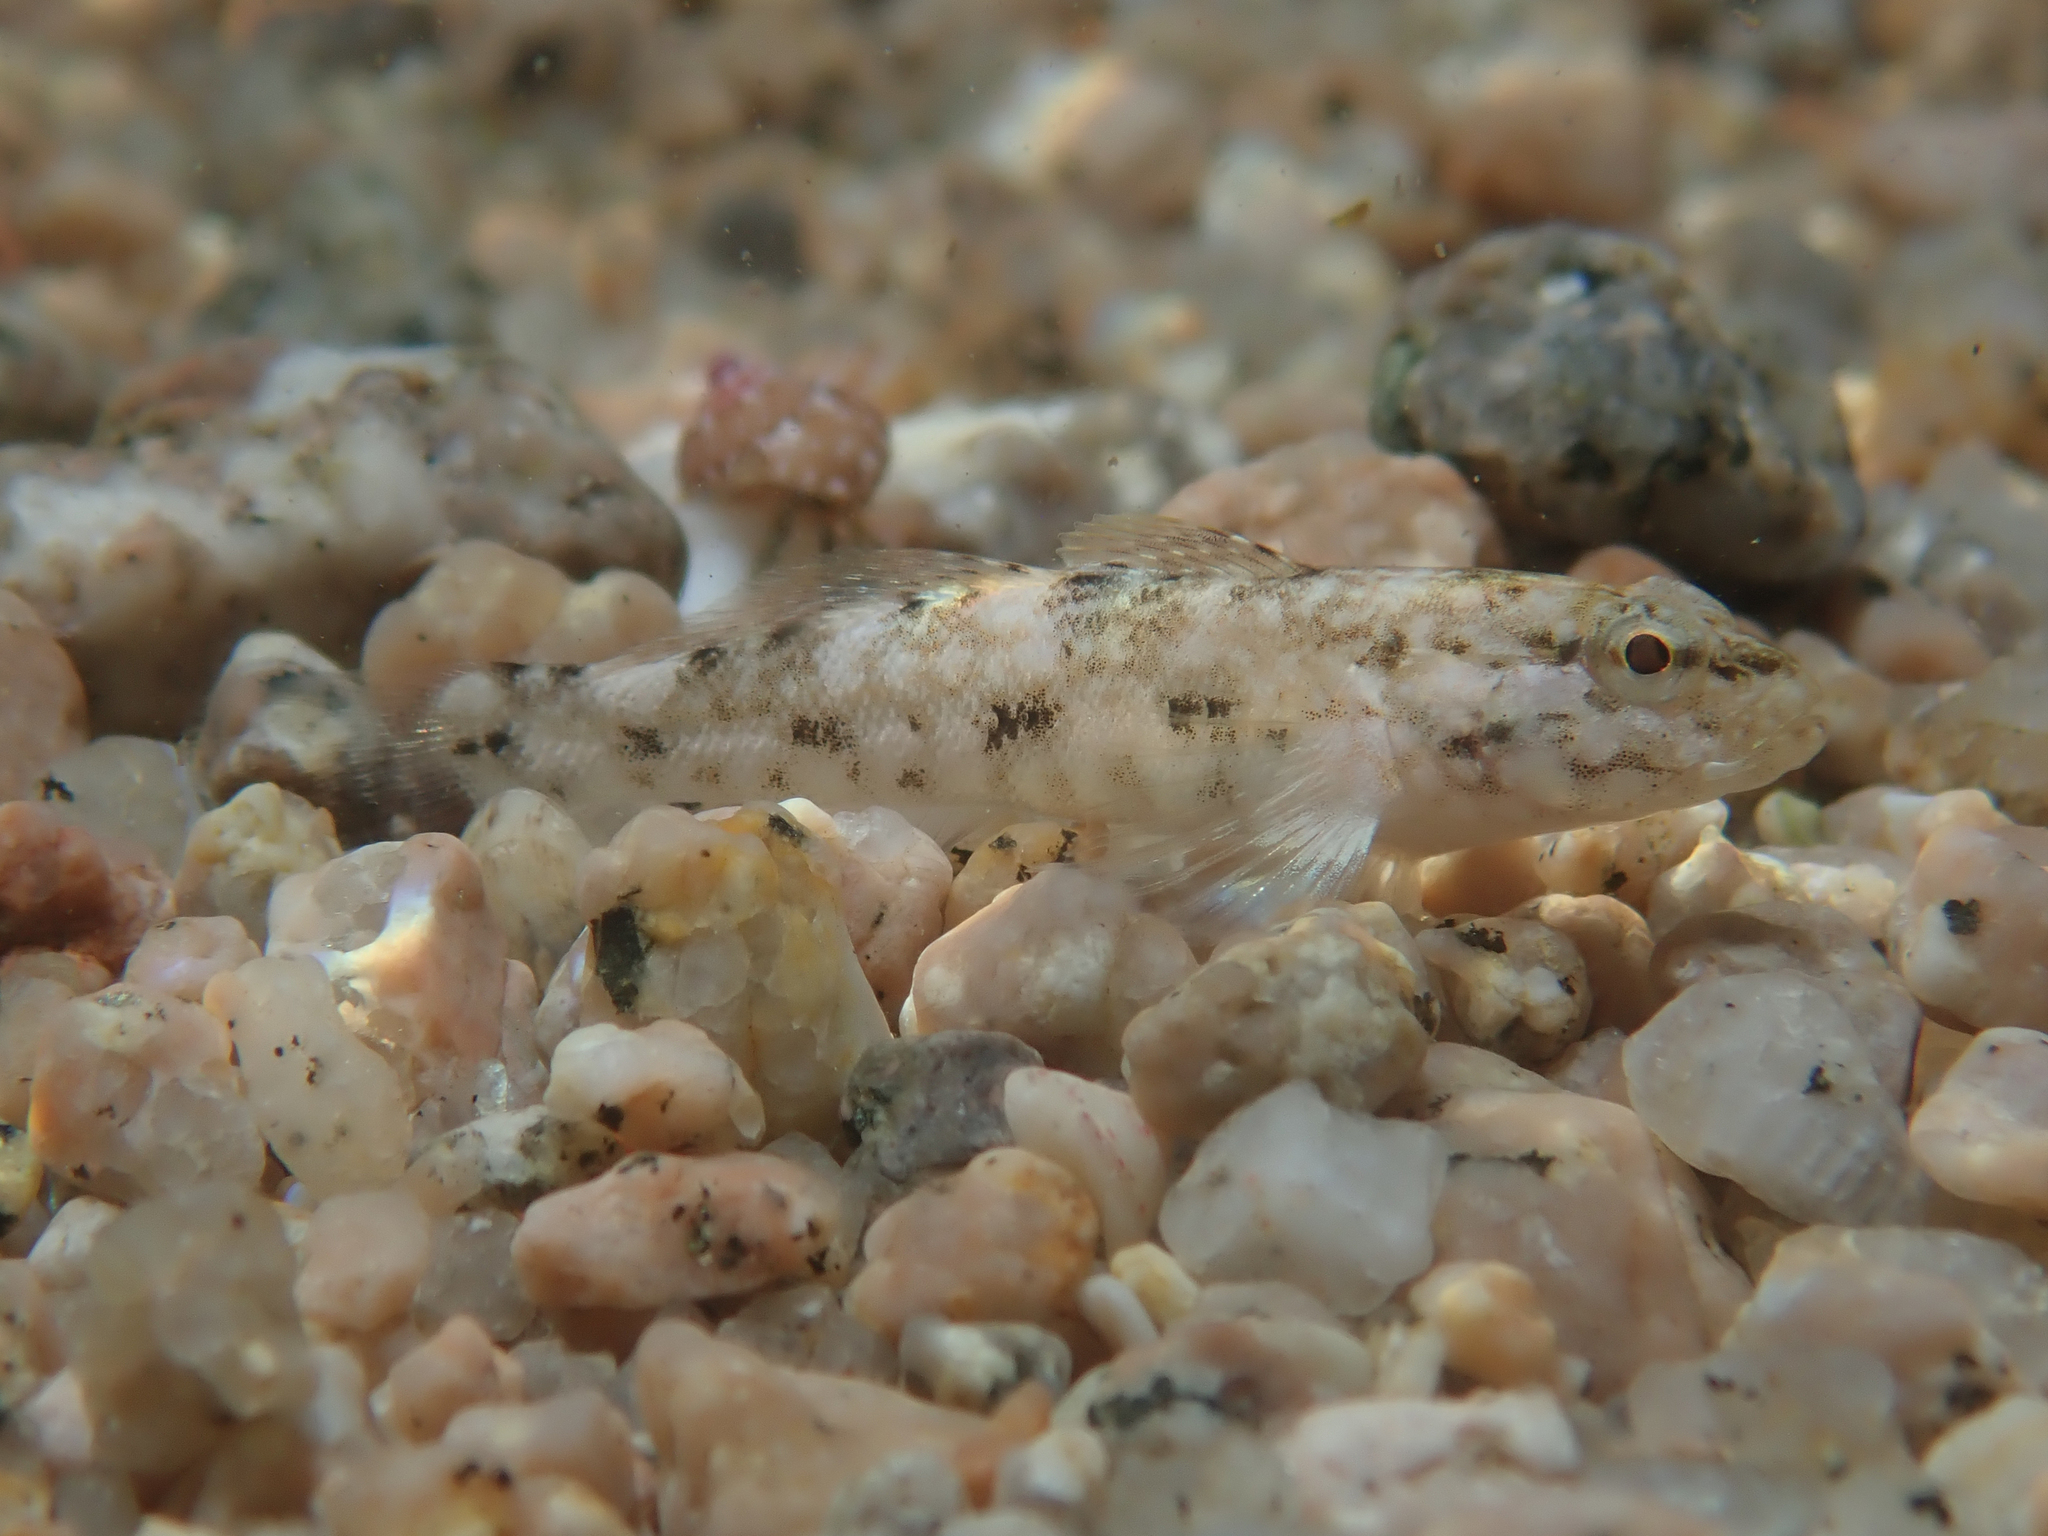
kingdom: Animalia
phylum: Chordata
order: Perciformes
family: Gobiidae
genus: Gobius
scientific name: Gobius cobitis
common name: Giant goby
